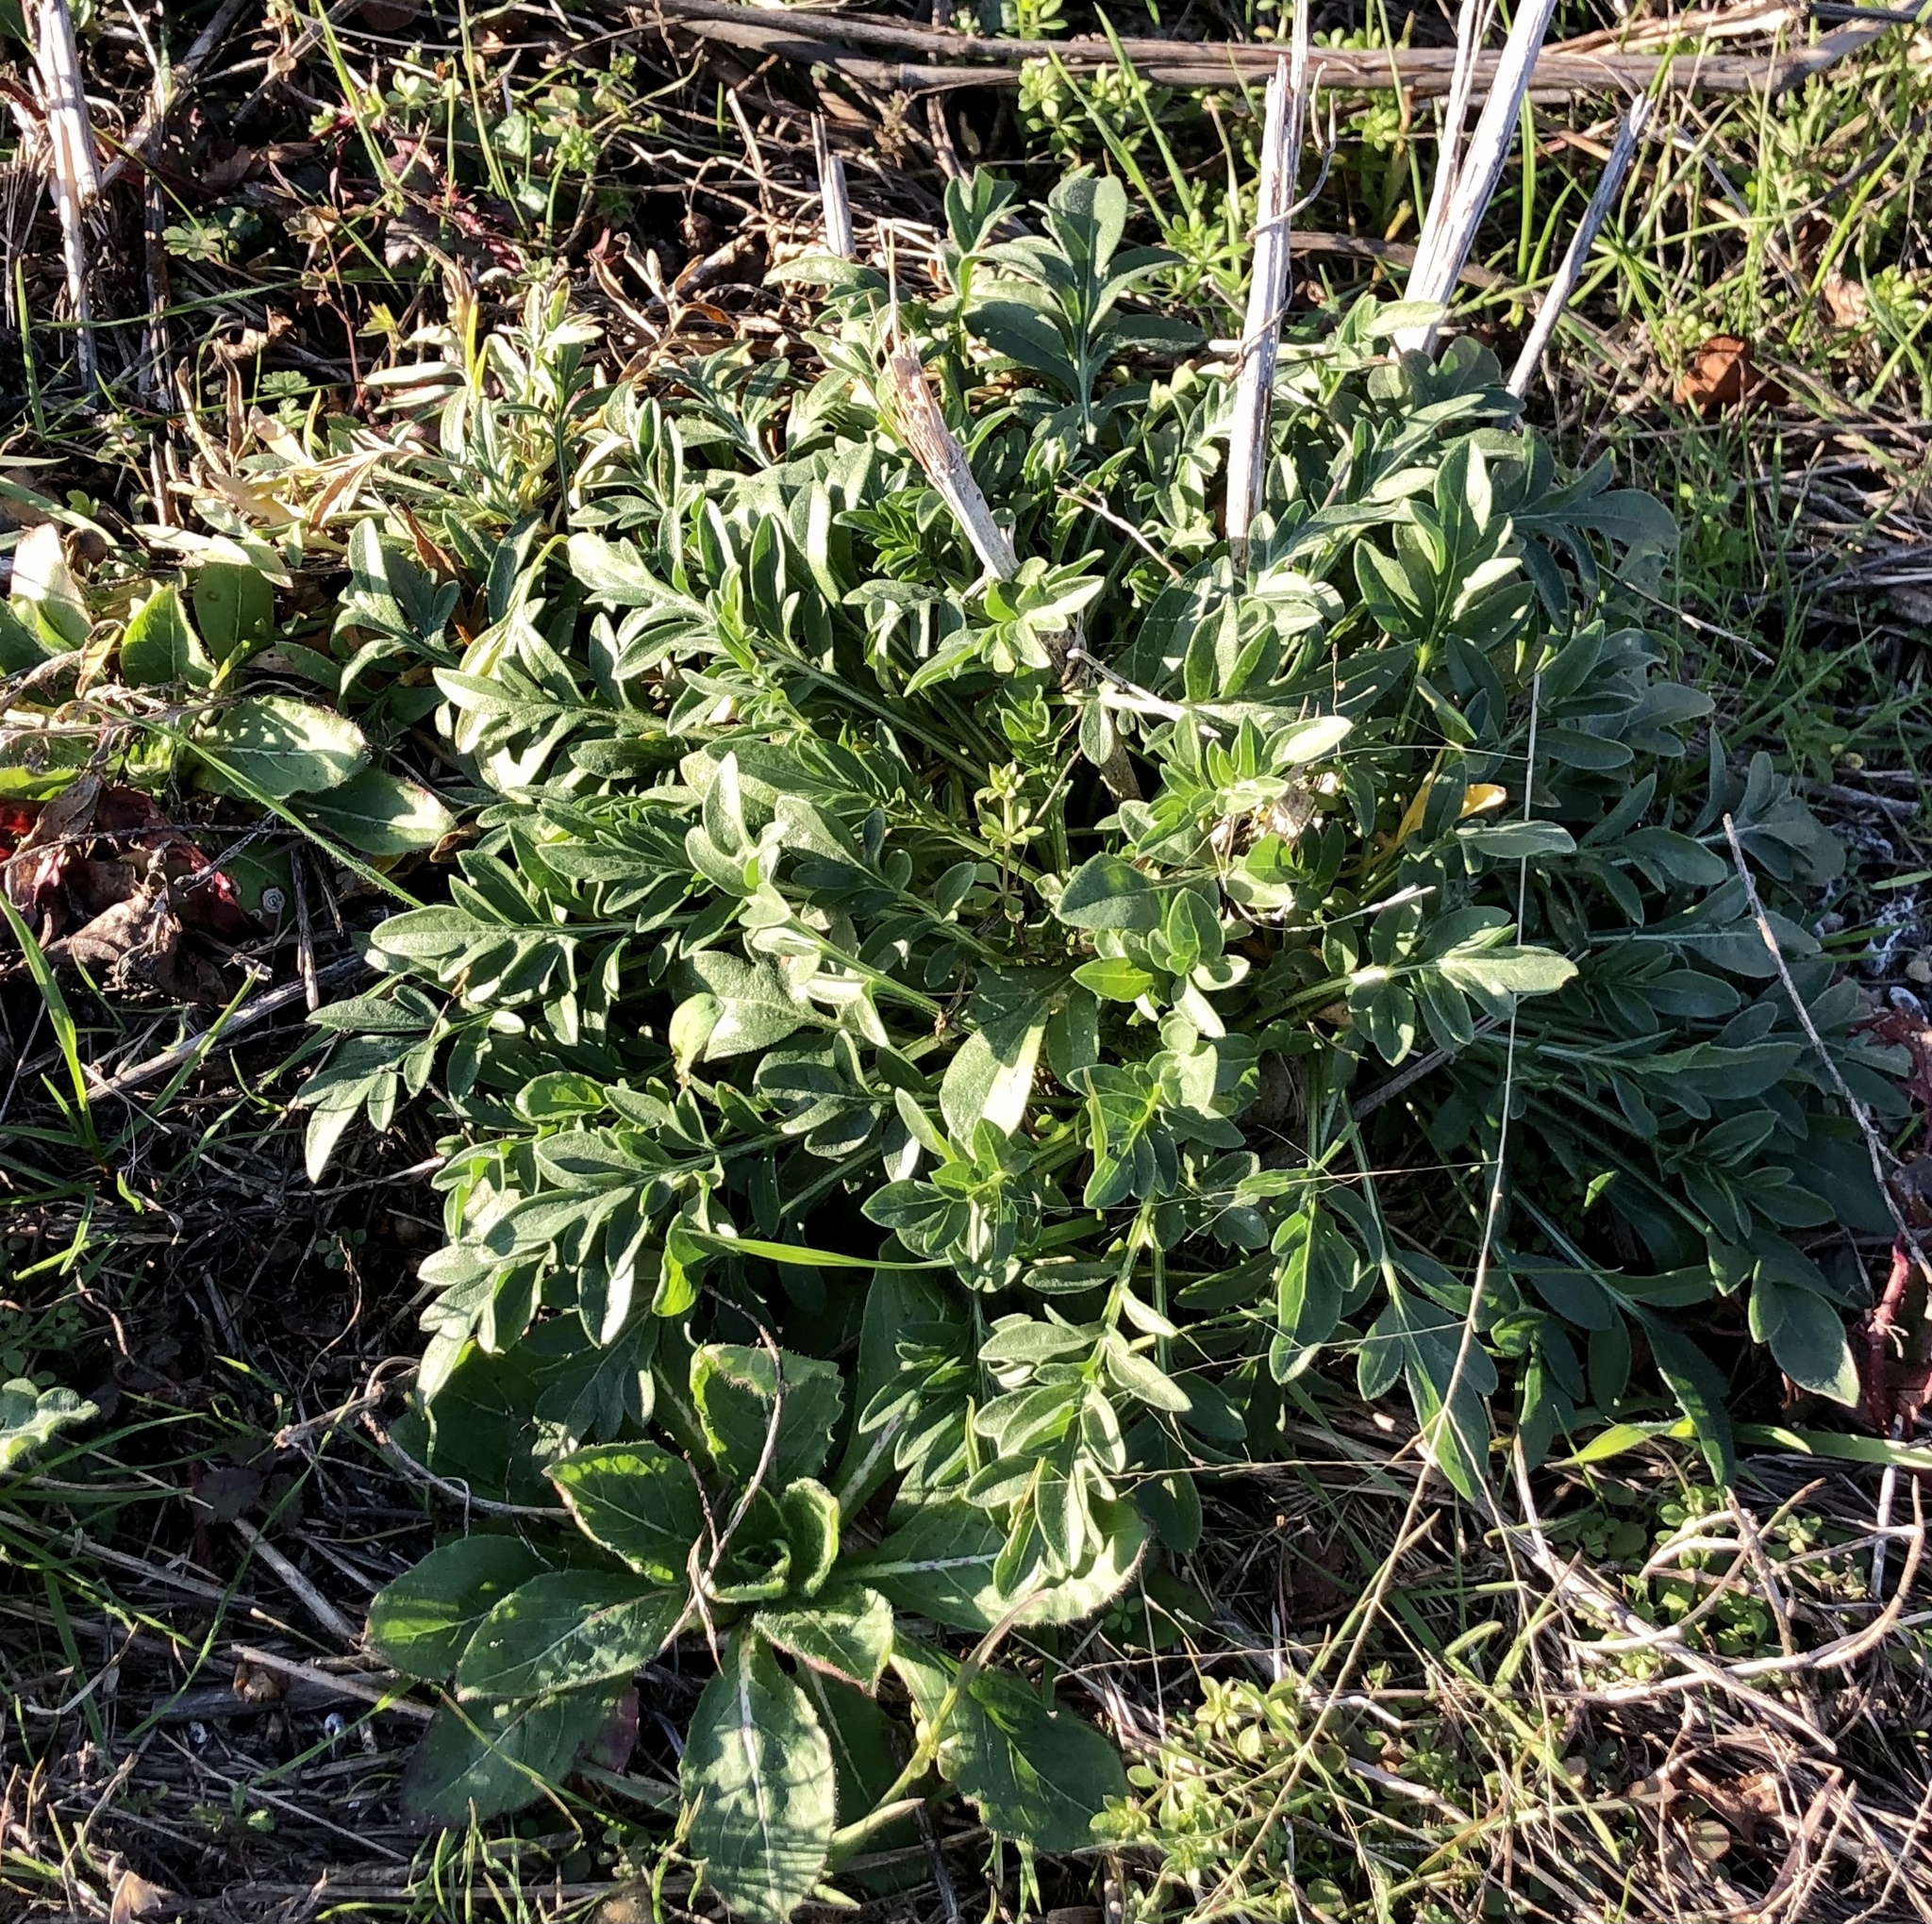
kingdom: Plantae
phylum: Tracheophyta
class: Magnoliopsida
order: Asterales
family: Asteraceae
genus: Ratibida
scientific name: Ratibida columnifera
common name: Prairie coneflower
